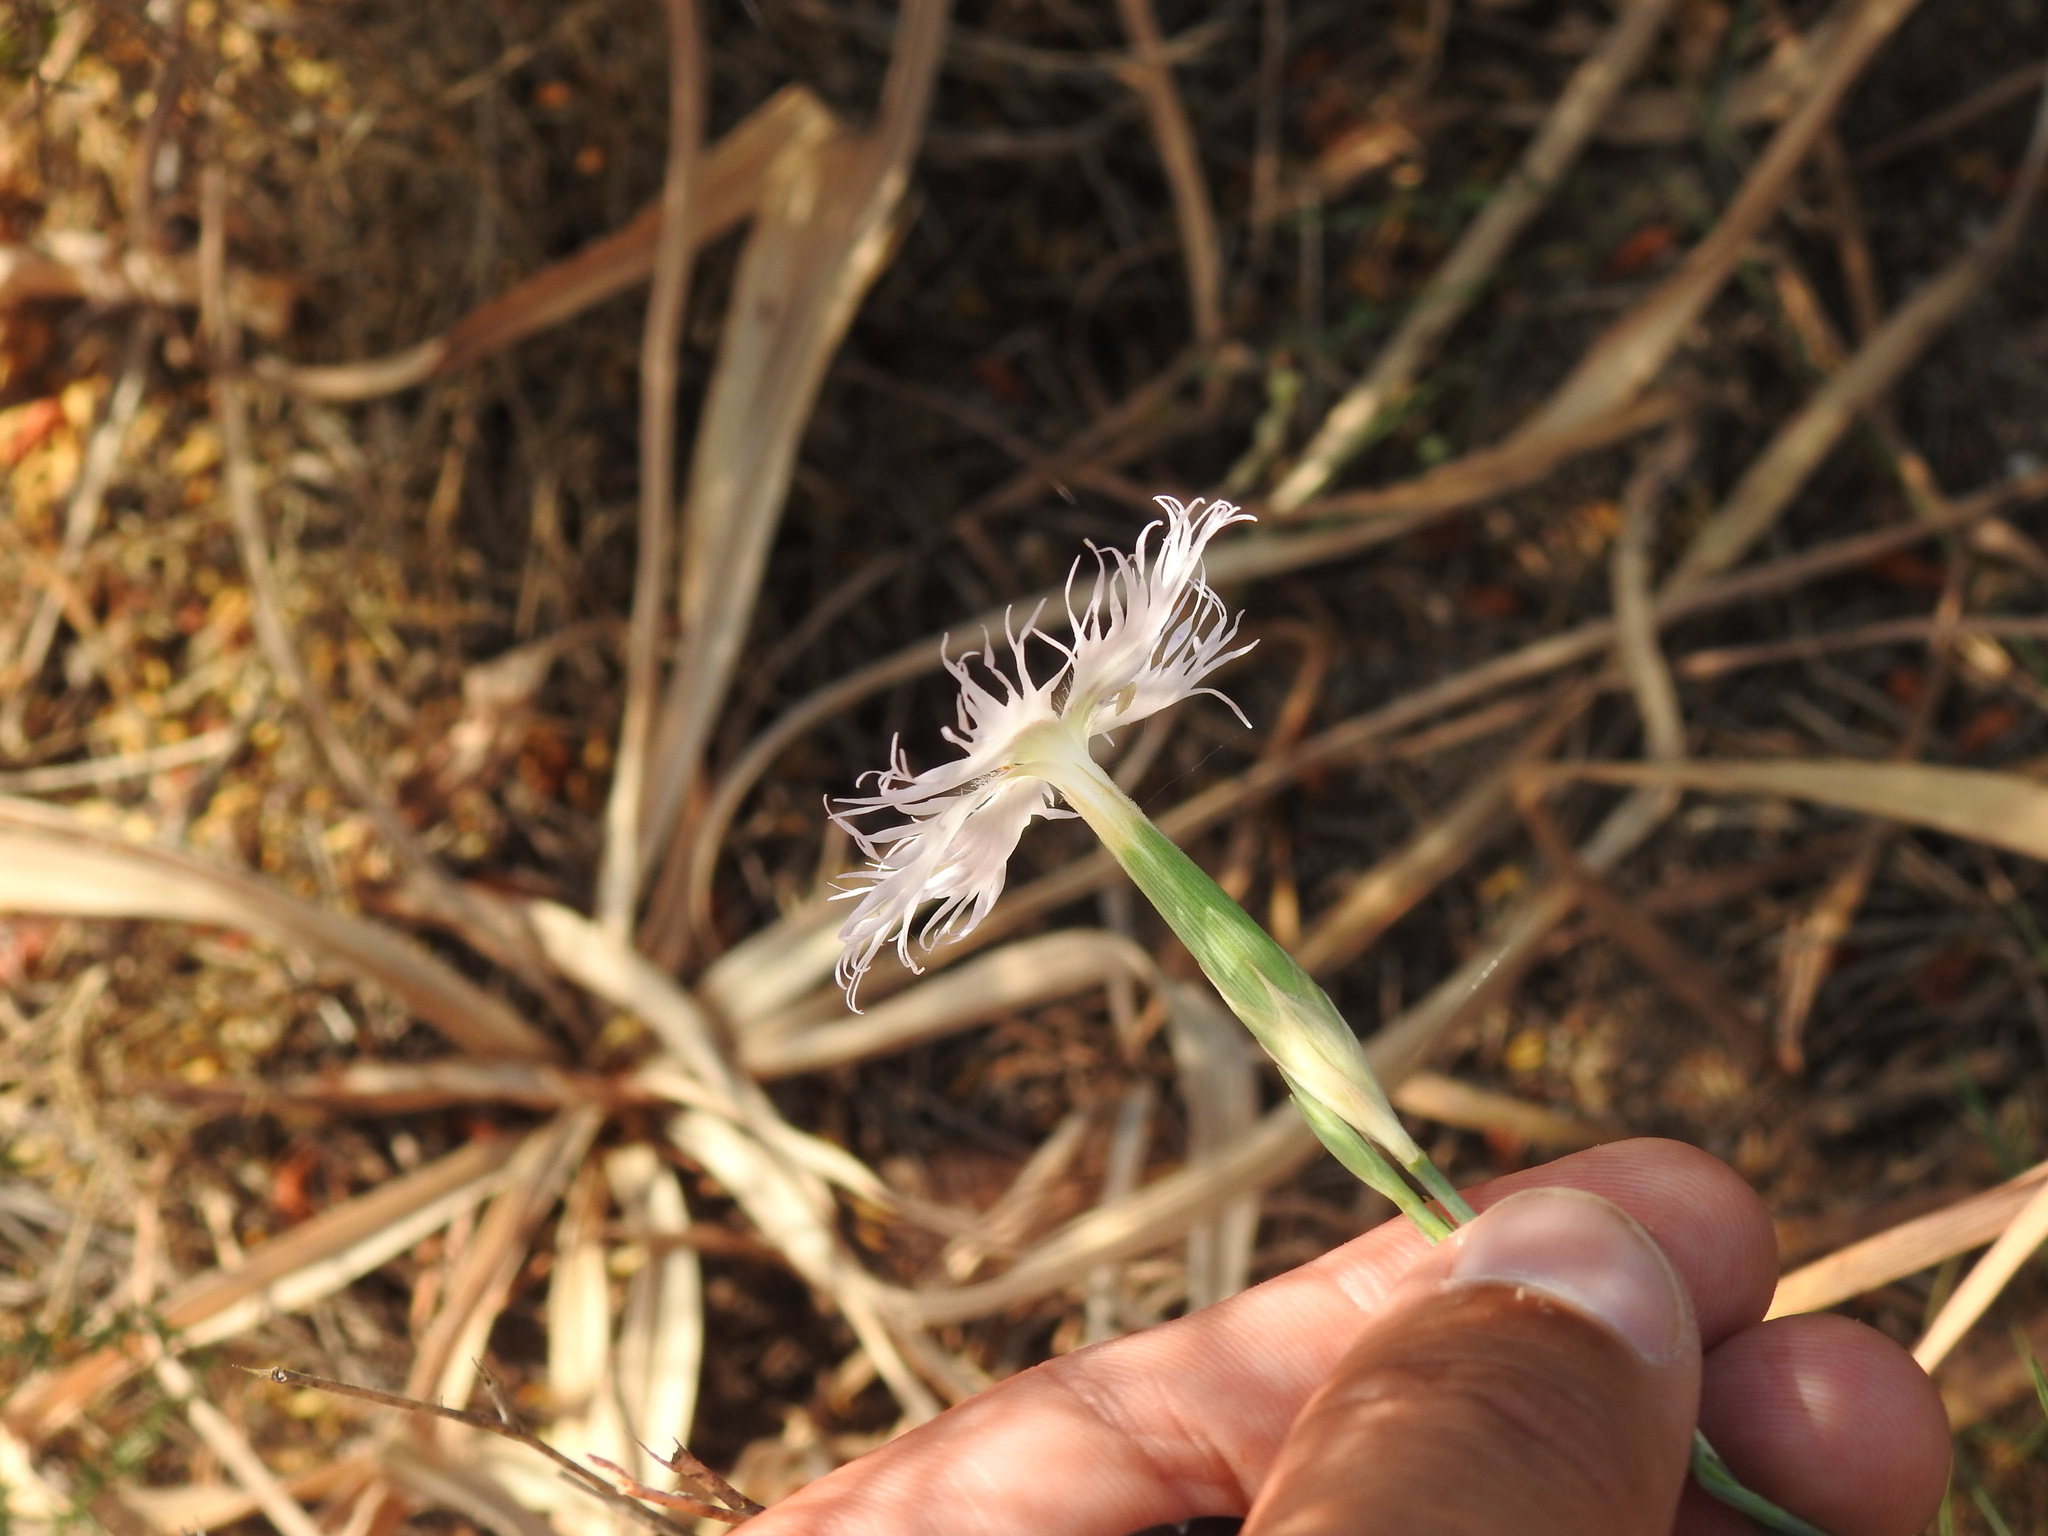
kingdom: Plantae
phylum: Tracheophyta
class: Magnoliopsida
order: Caryophyllales
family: Caryophyllaceae
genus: Dianthus
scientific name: Dianthus broteri
